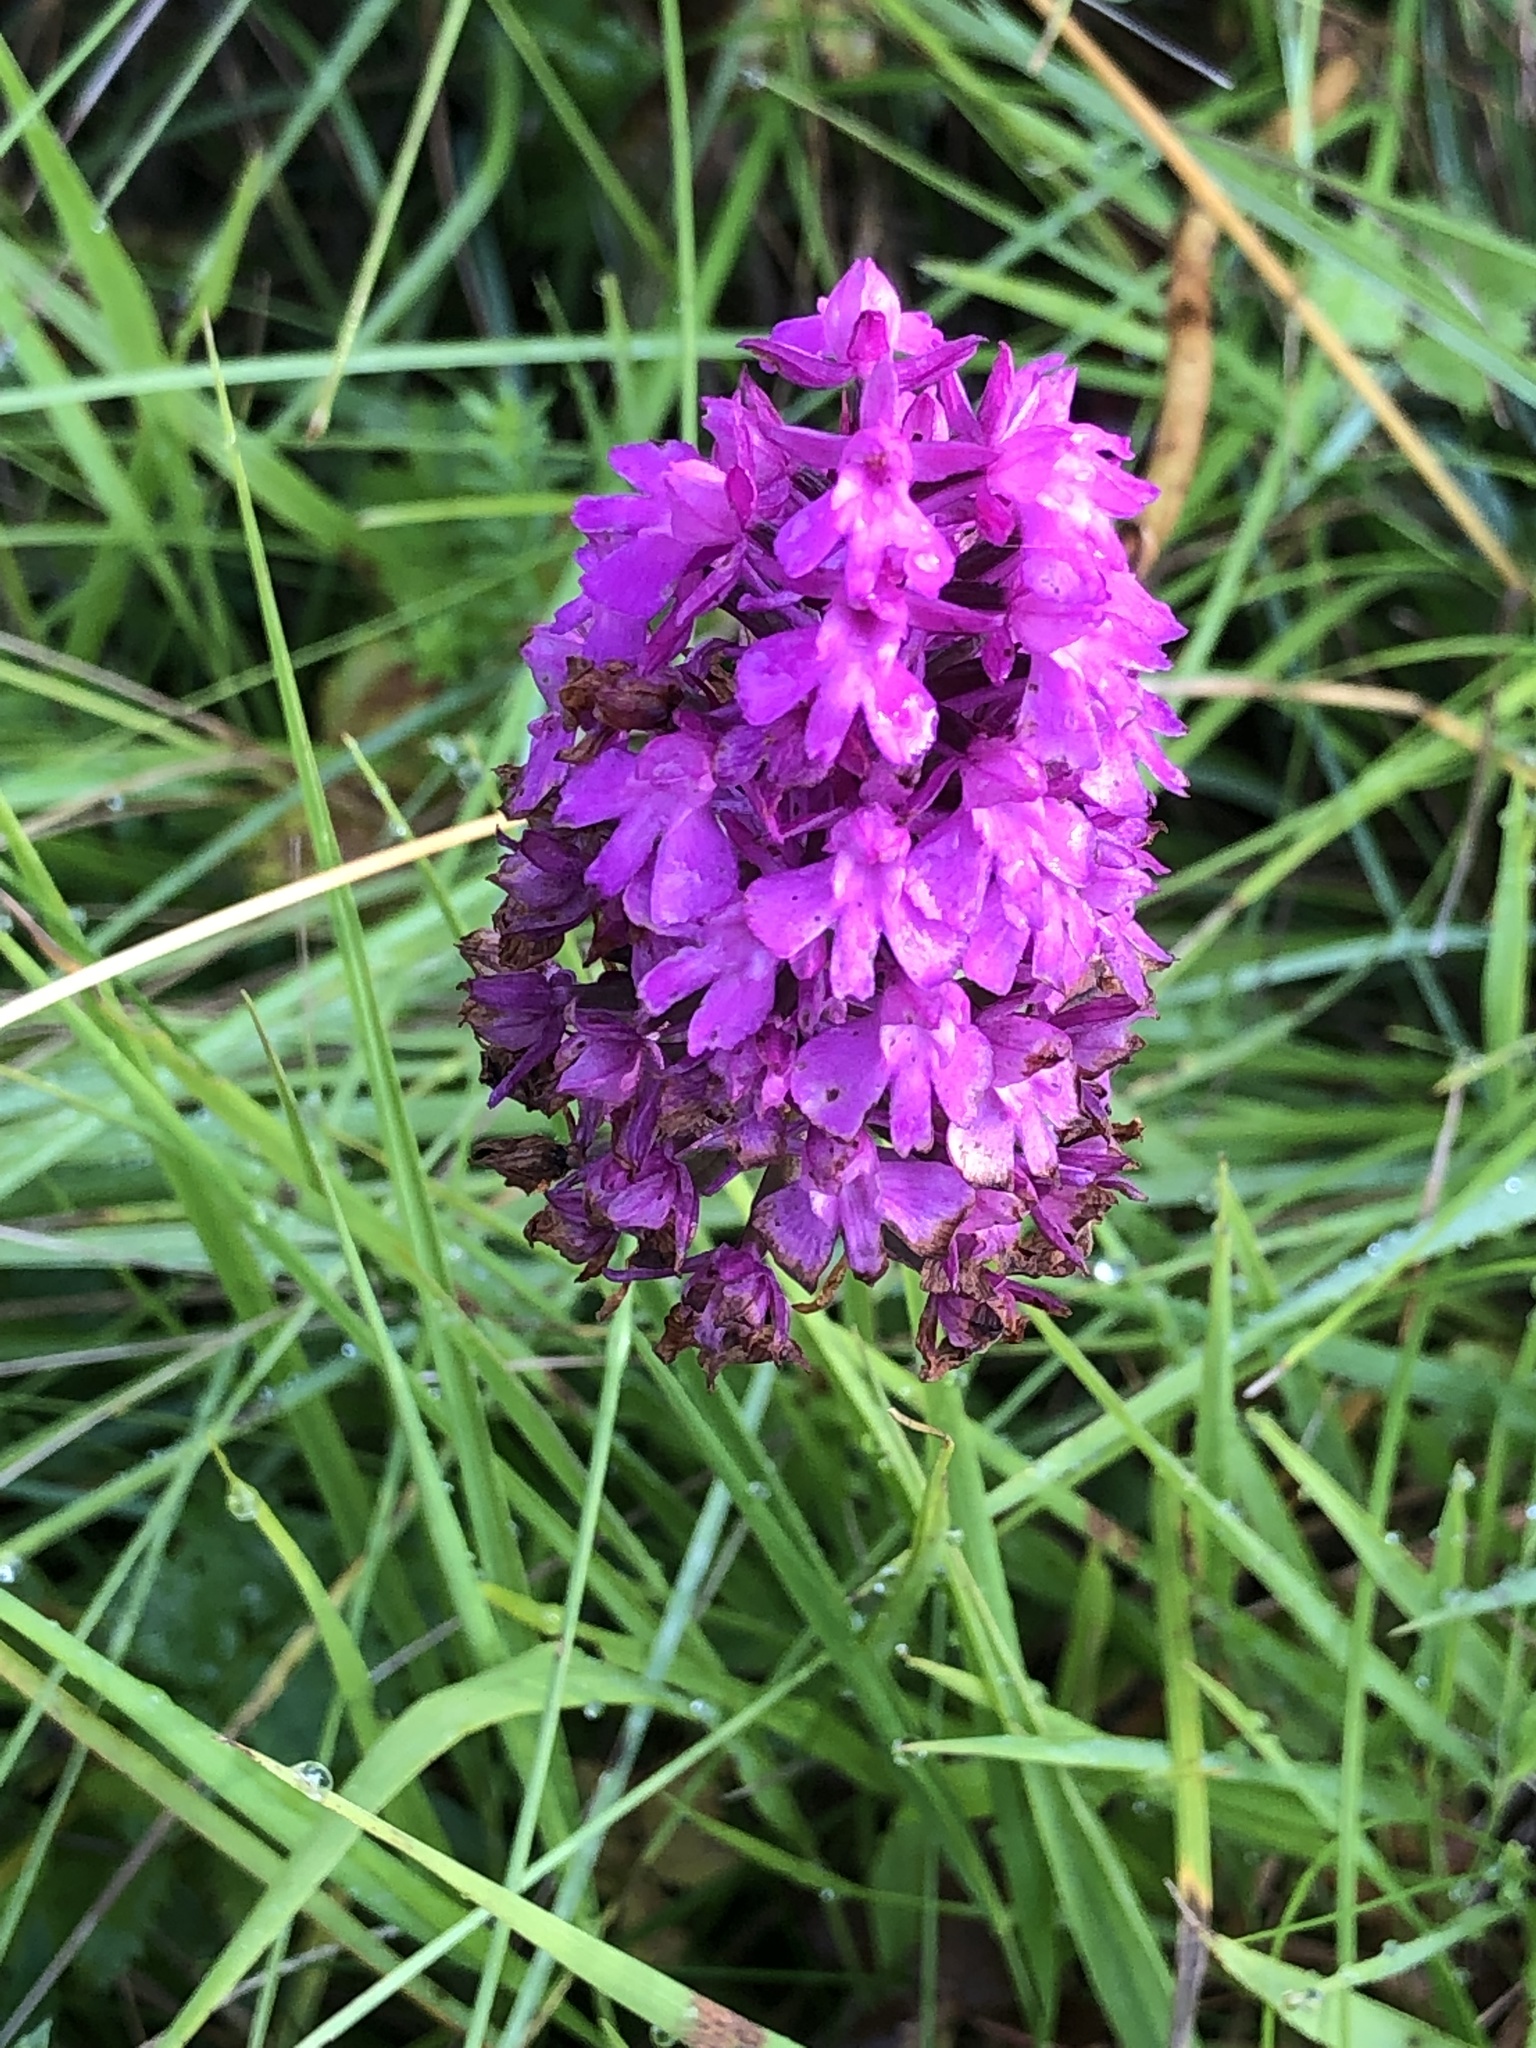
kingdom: Plantae
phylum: Tracheophyta
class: Liliopsida
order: Asparagales
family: Orchidaceae
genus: Anacamptis
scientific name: Anacamptis pyramidalis
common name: Pyramidal orchid
